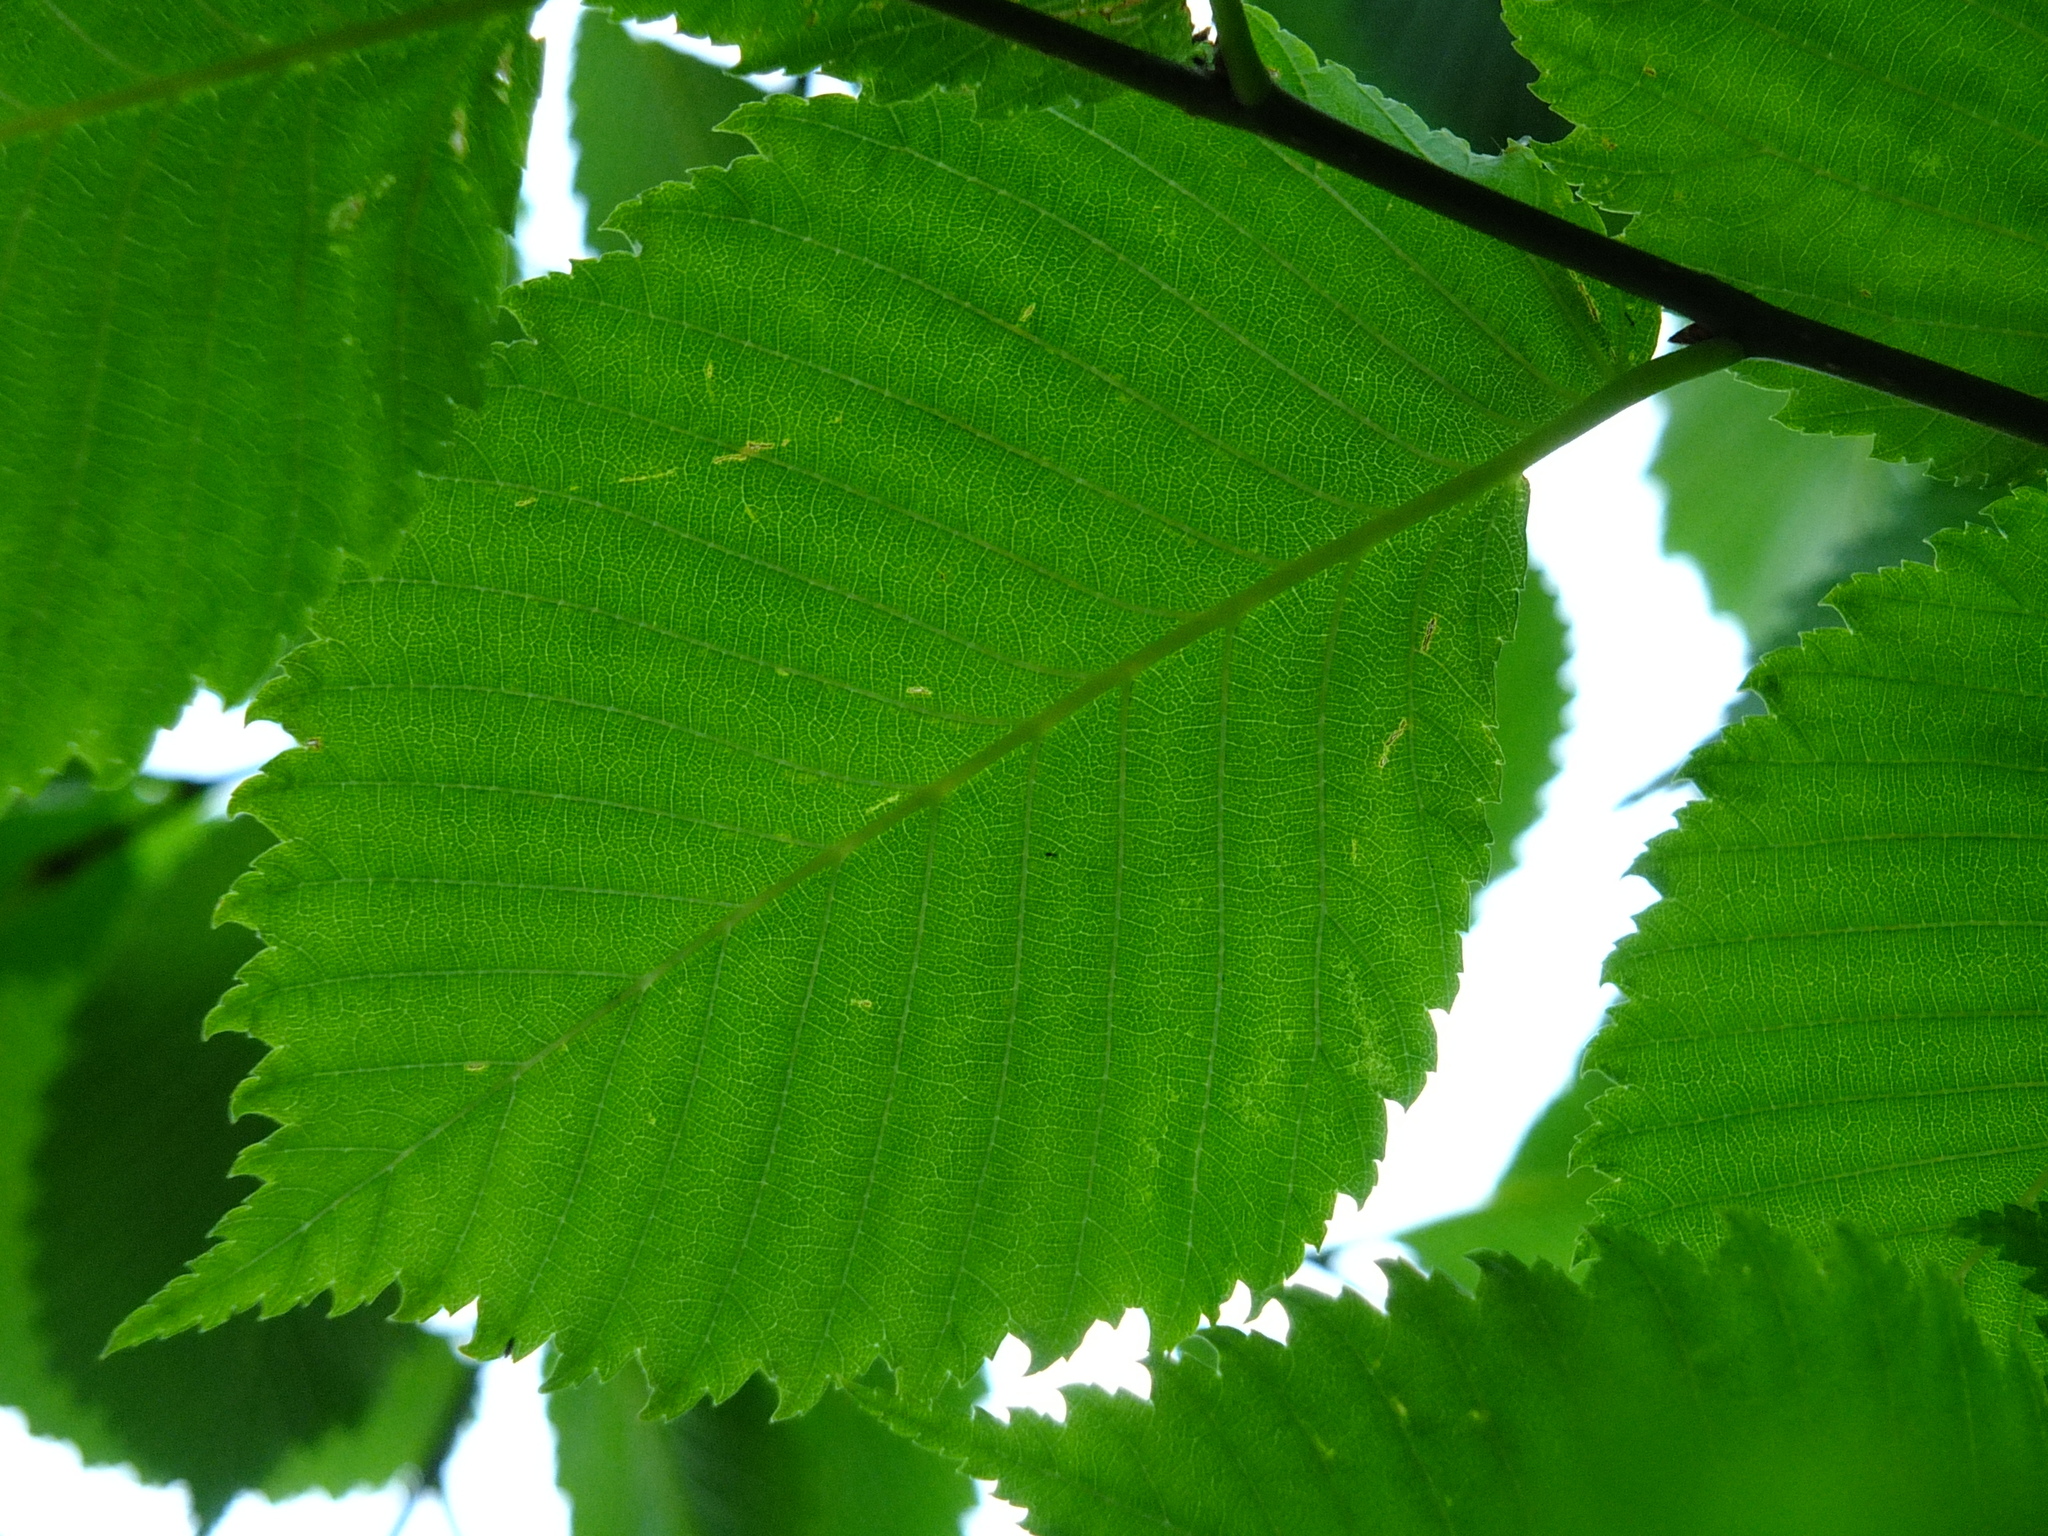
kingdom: Plantae
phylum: Tracheophyta
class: Magnoliopsida
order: Rosales
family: Ulmaceae
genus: Ulmus
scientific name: Ulmus laevis
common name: European white-elm
